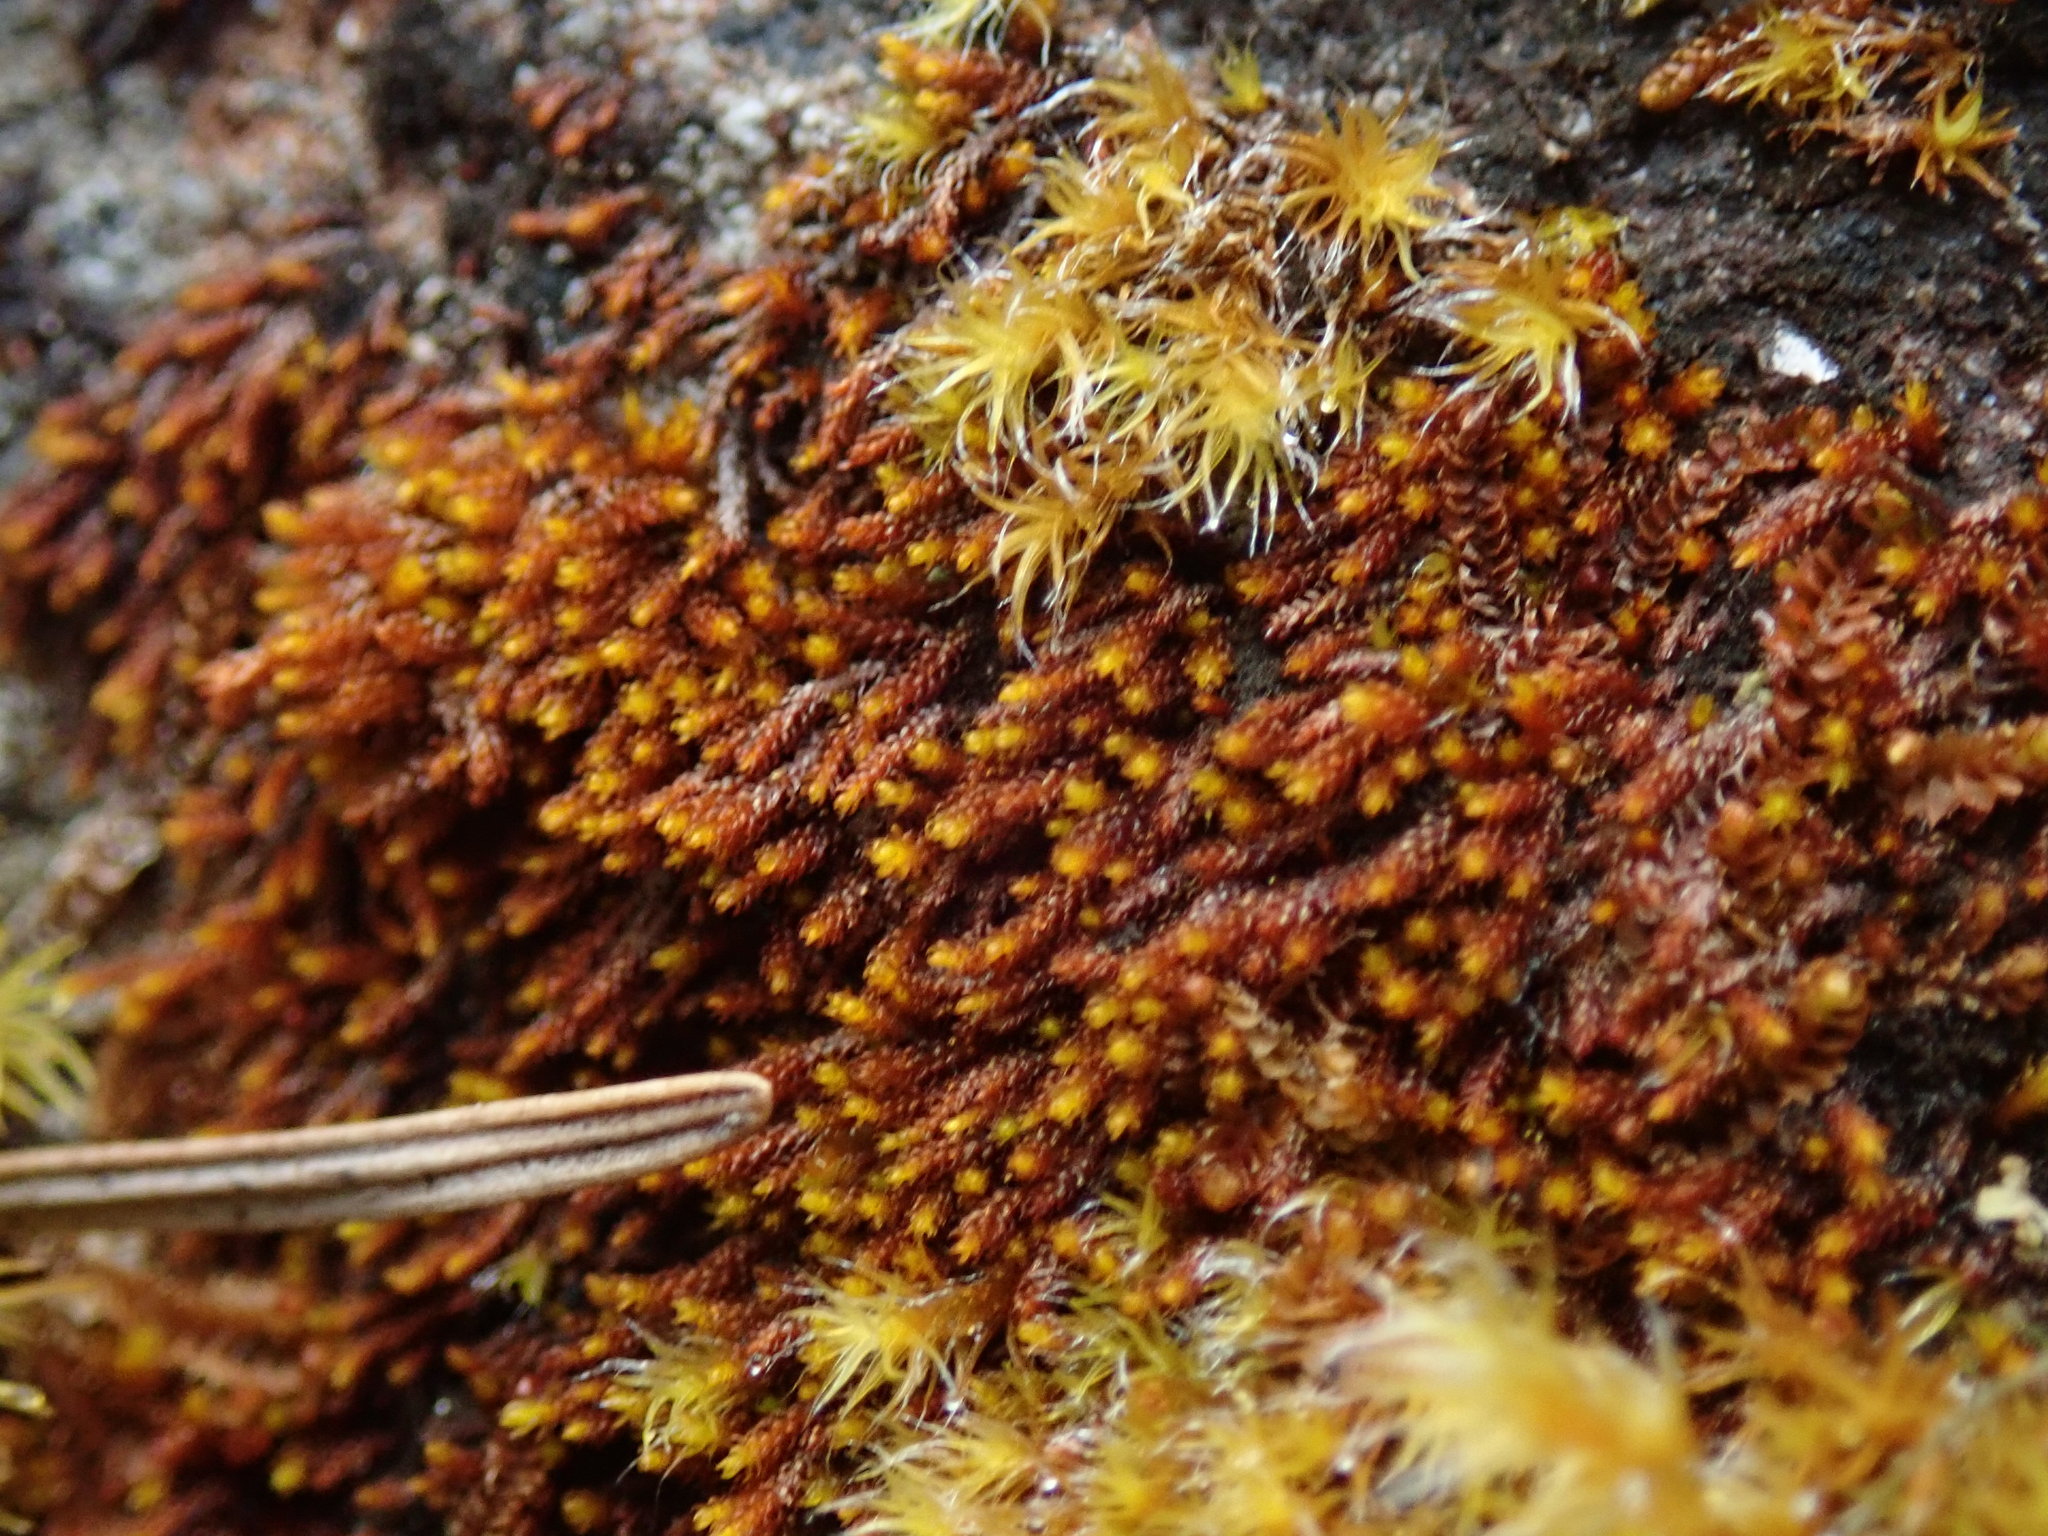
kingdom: Plantae
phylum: Bryophyta
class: Andreaeopsida
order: Andreaeales
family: Andreaeaceae
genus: Andreaea
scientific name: Andreaea rupestris
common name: Black rock moss
